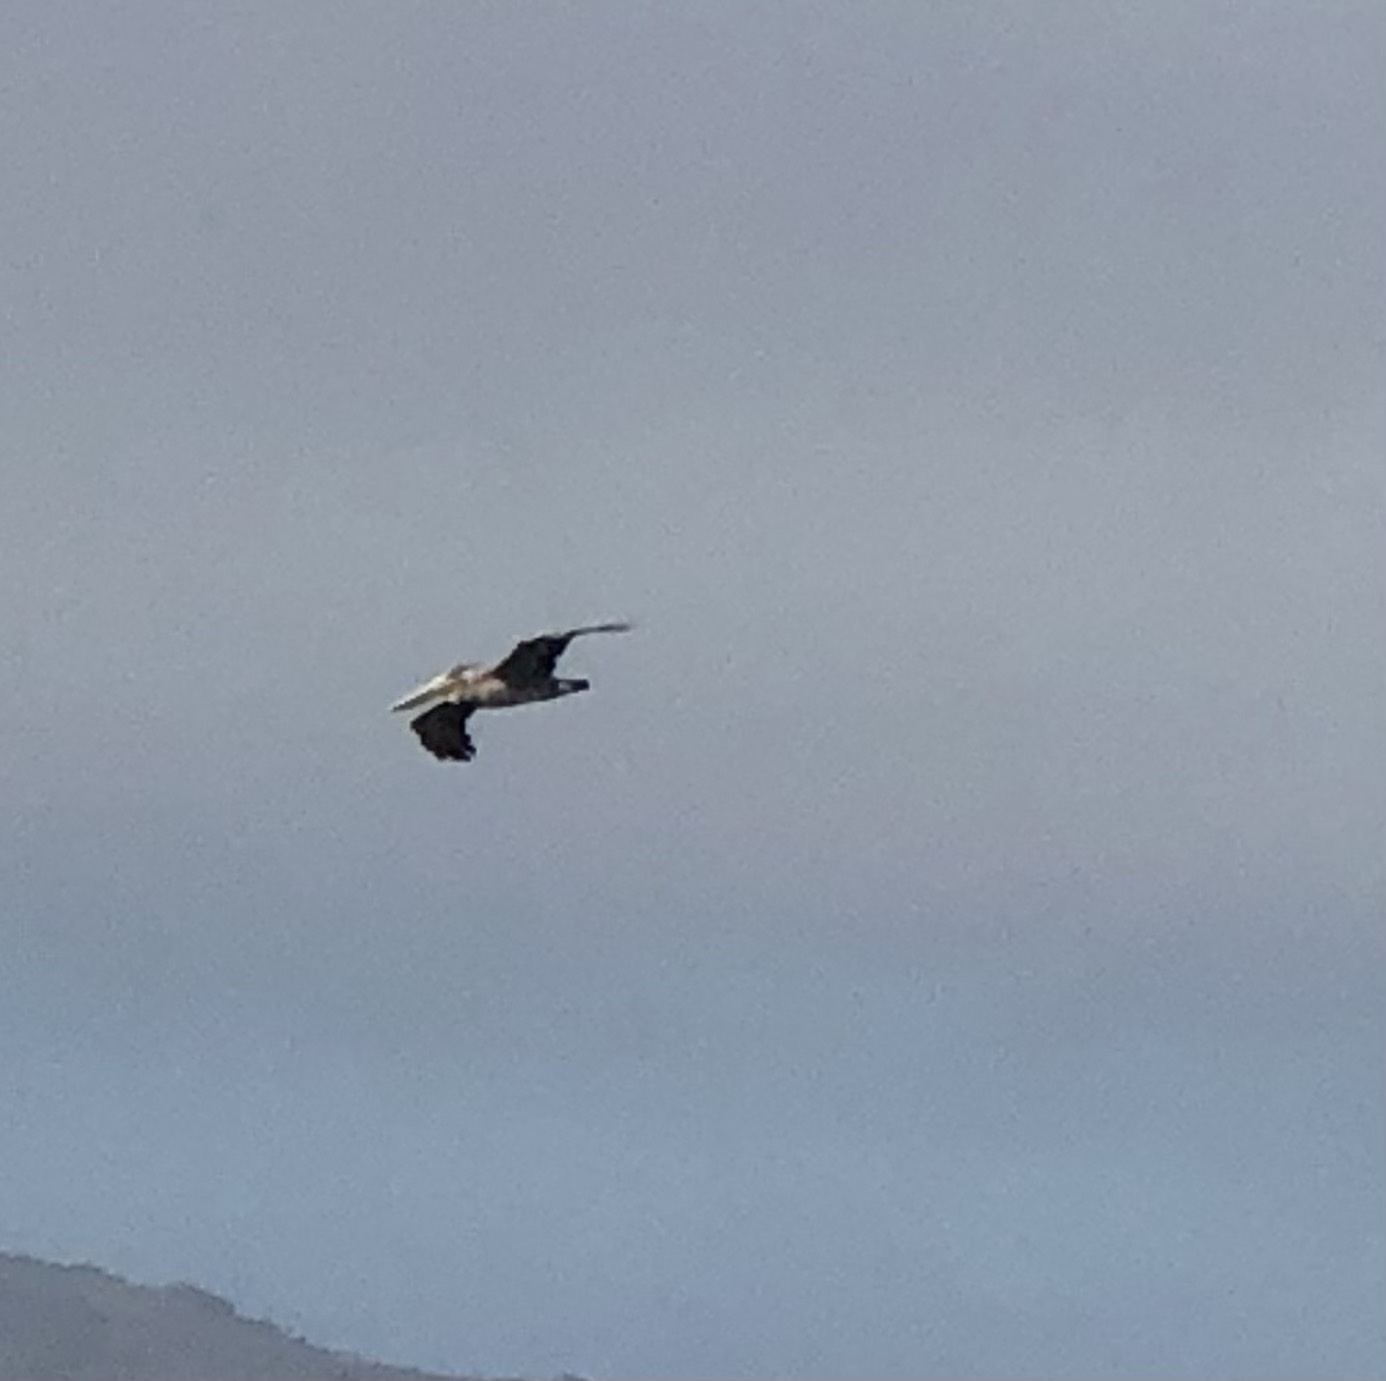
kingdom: Animalia
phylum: Chordata
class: Aves
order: Pelecaniformes
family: Pelecanidae
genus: Pelecanus
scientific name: Pelecanus occidentalis
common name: Brown pelican
